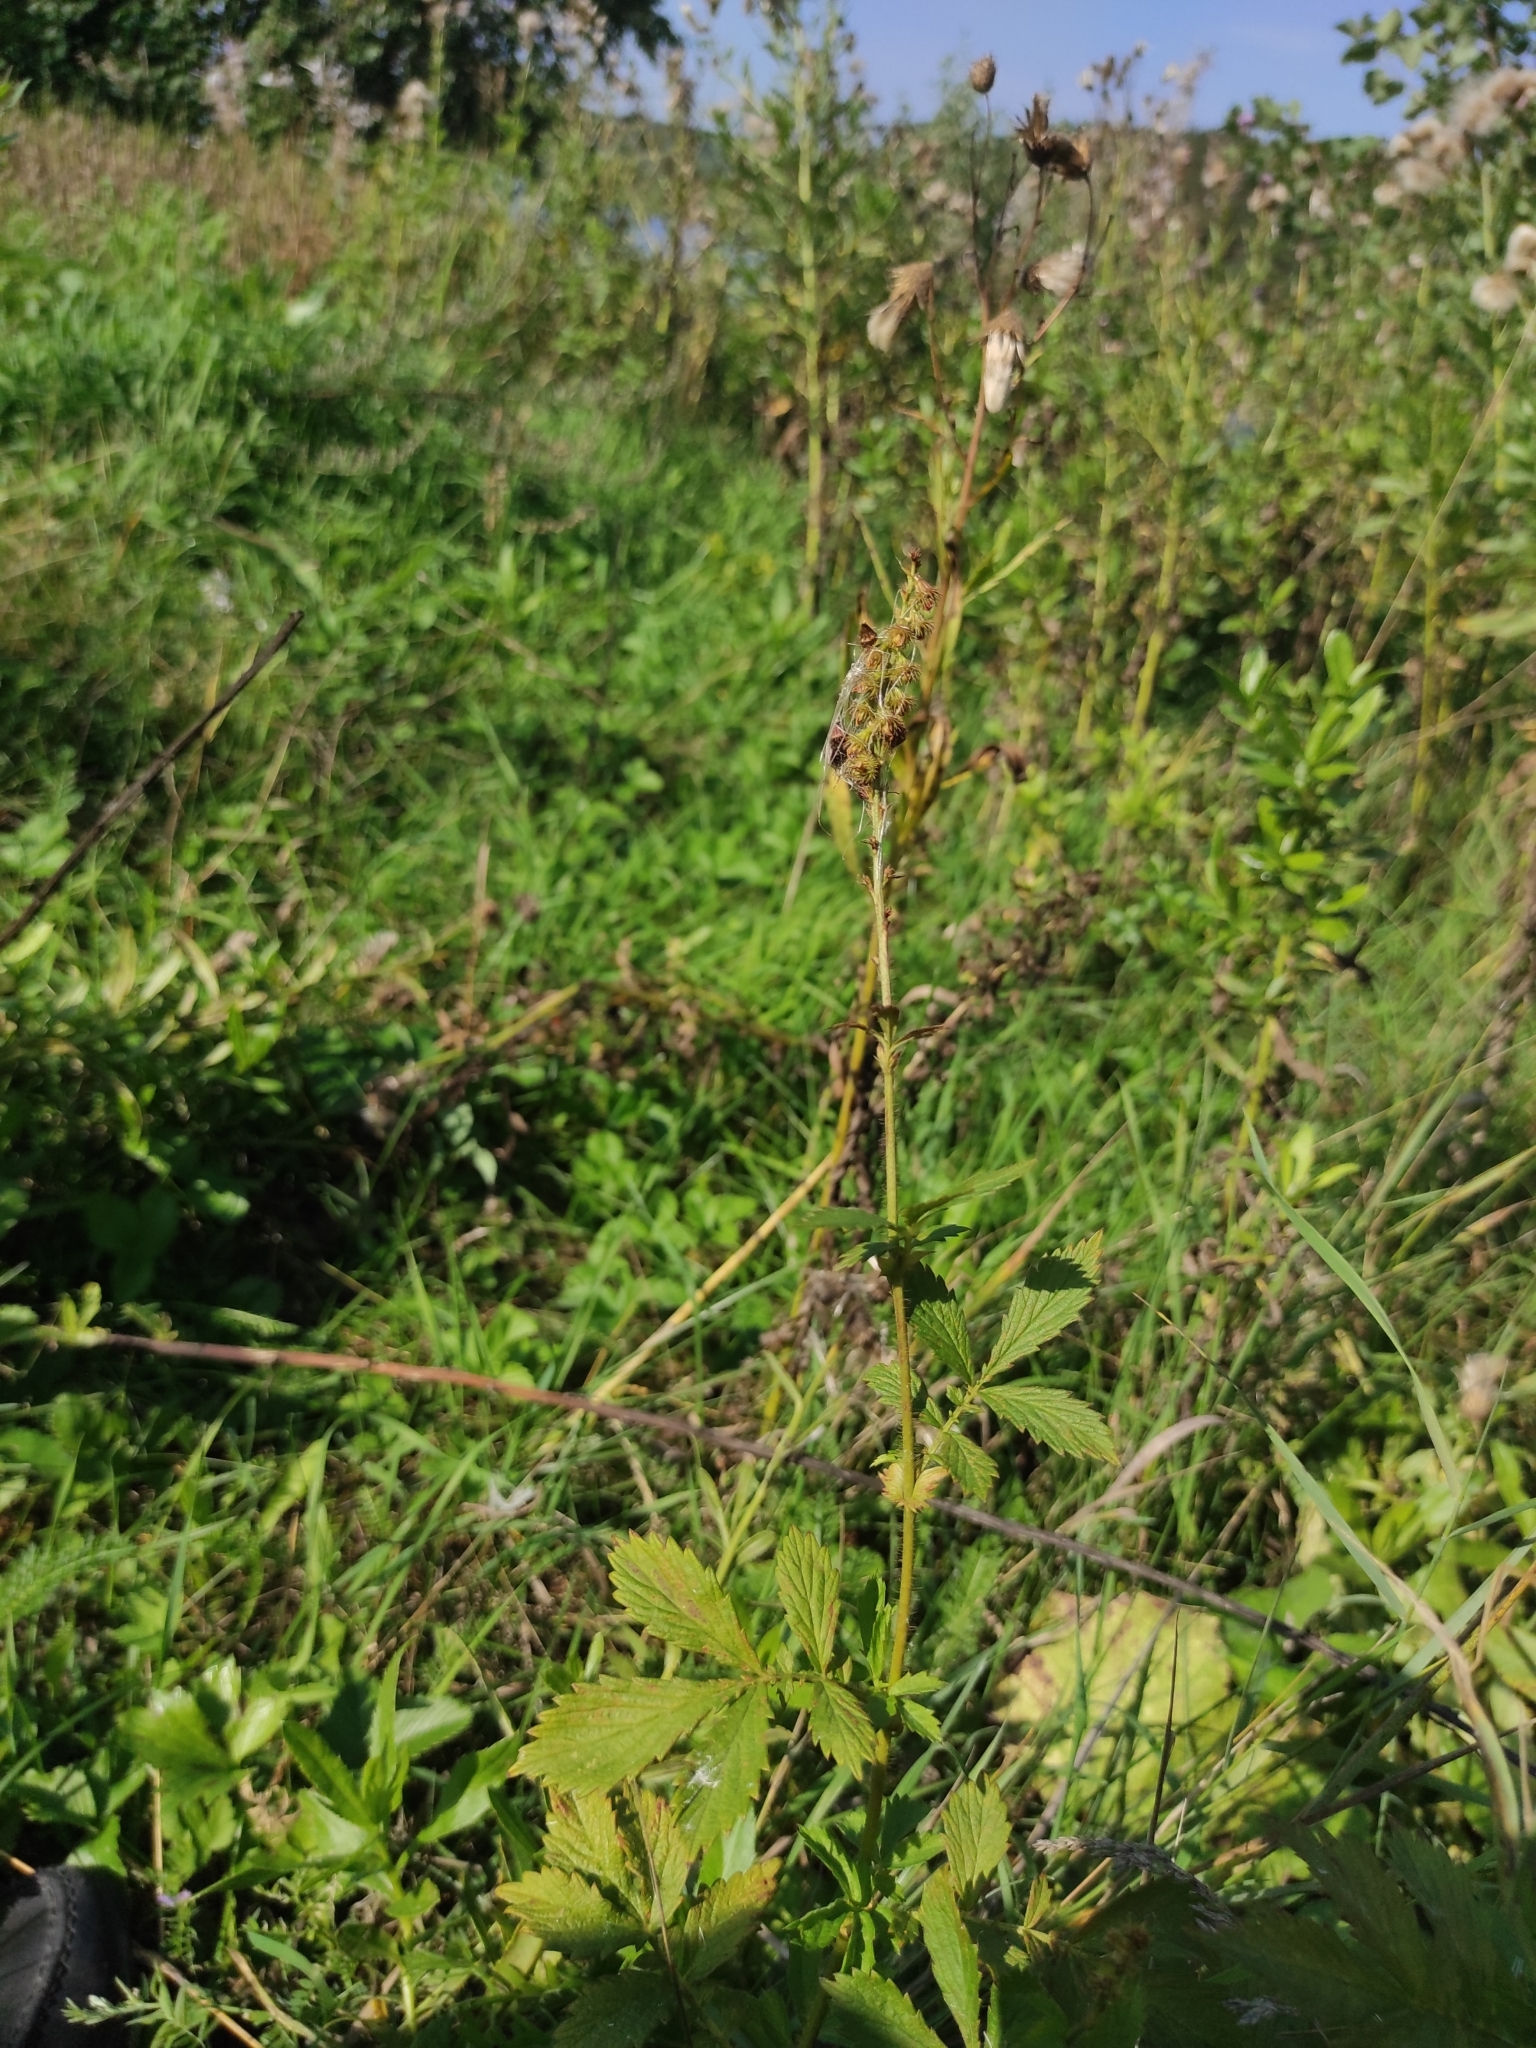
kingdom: Plantae
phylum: Tracheophyta
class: Magnoliopsida
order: Rosales
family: Rosaceae
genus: Agrimonia
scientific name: Agrimonia pilosa
